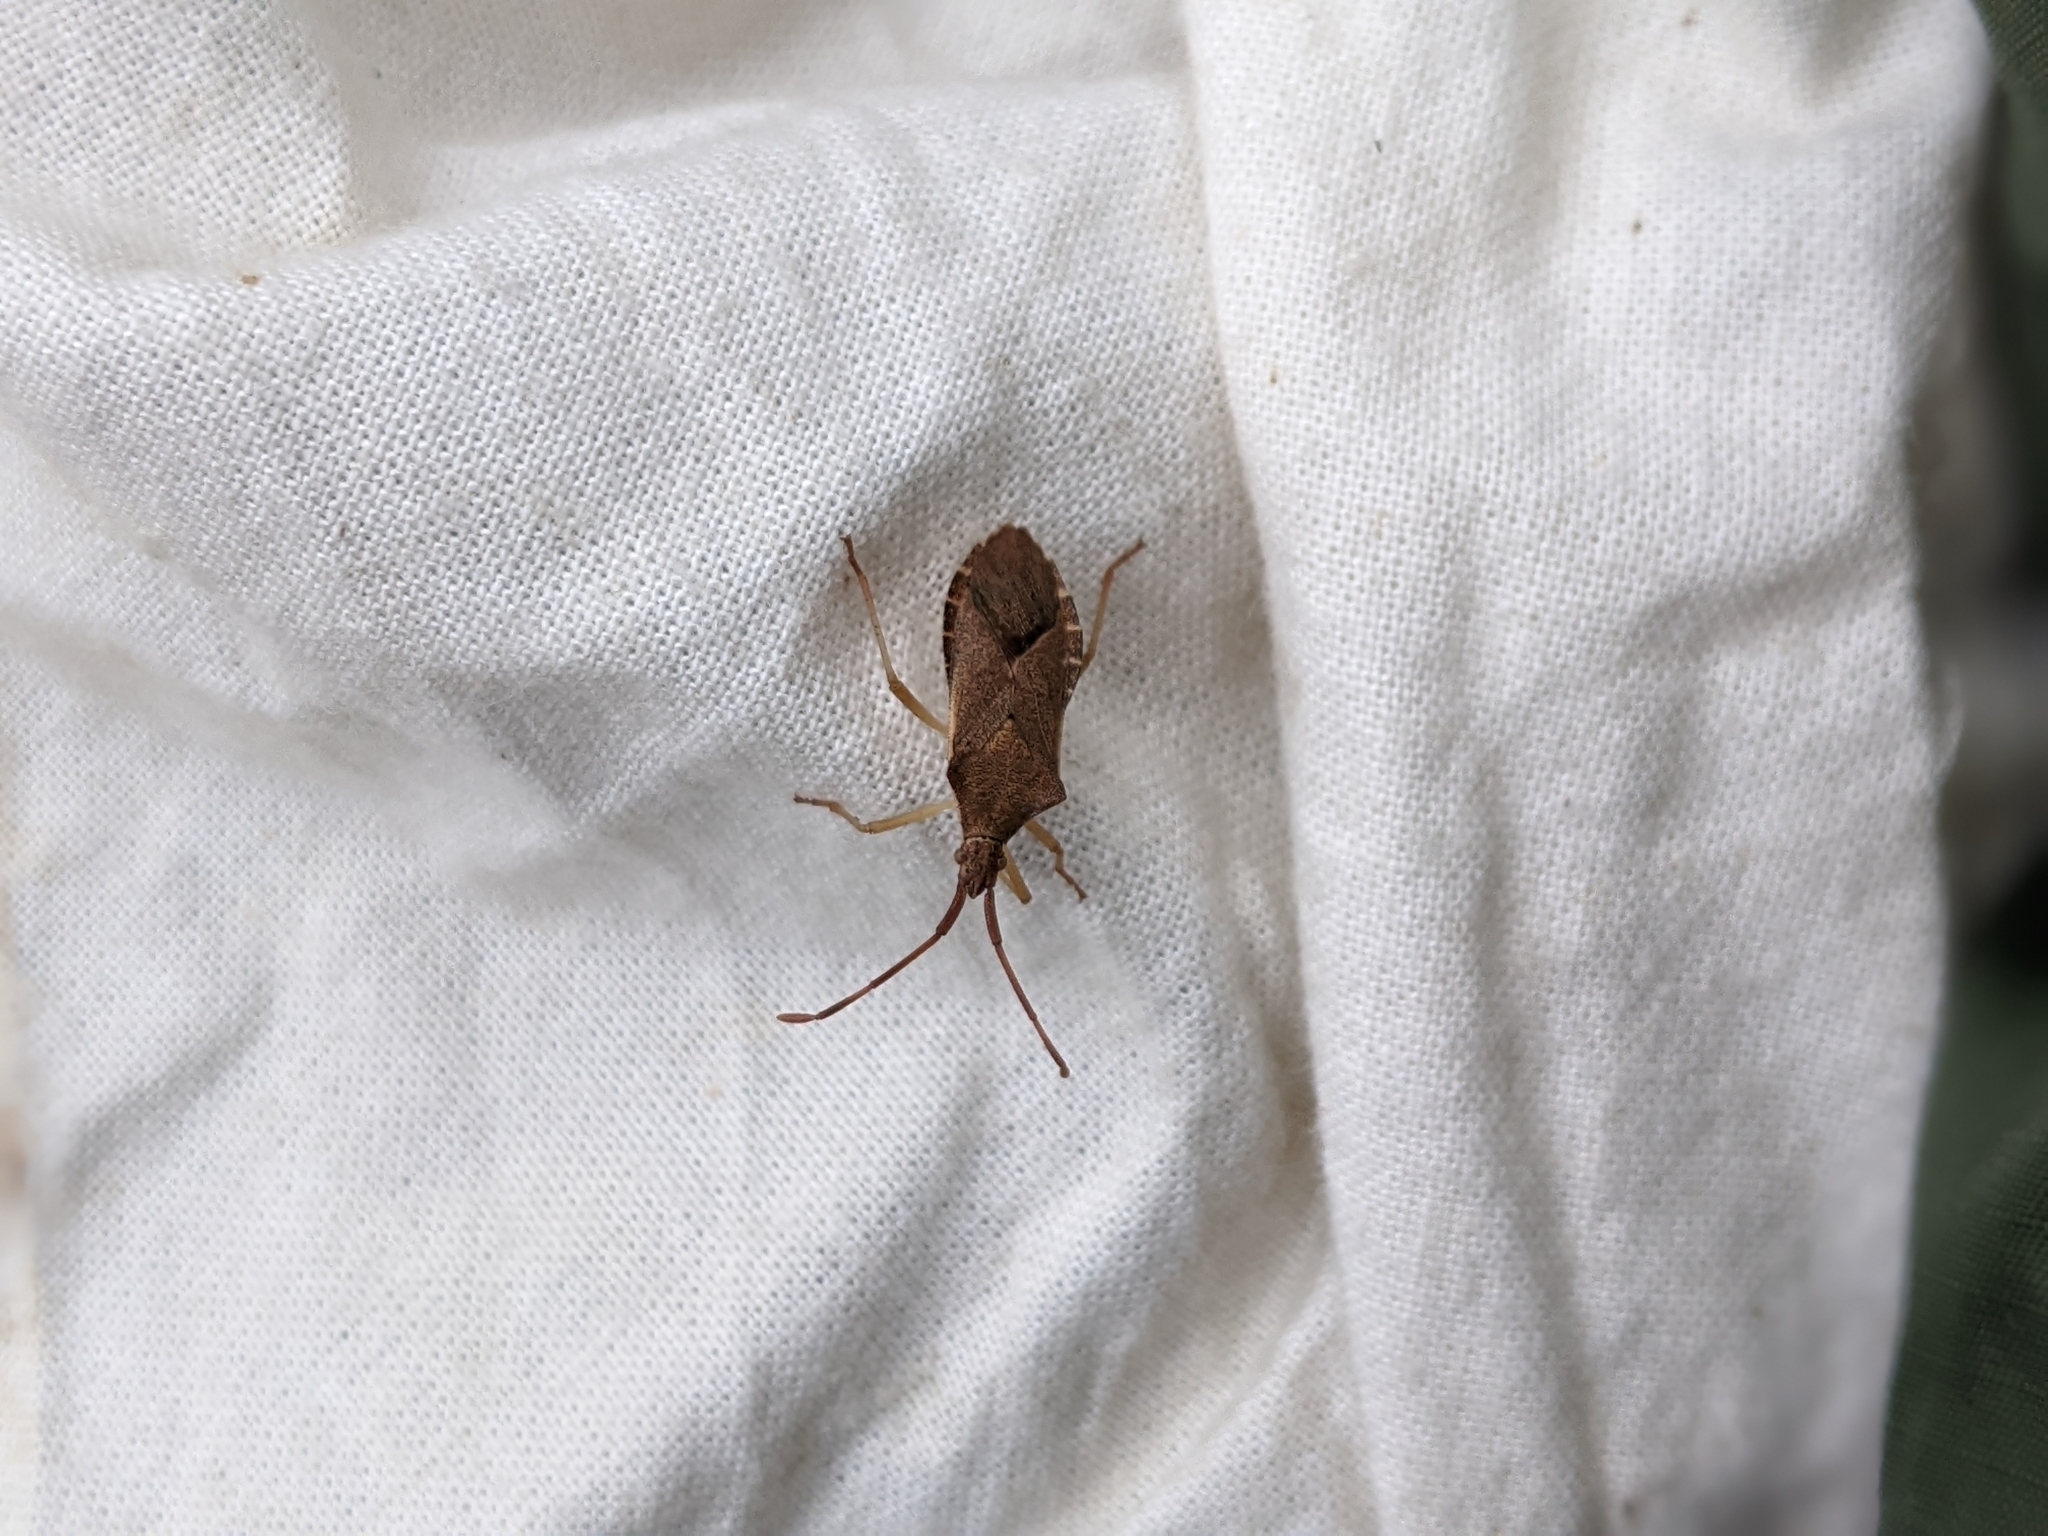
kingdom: Animalia
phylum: Arthropoda
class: Insecta
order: Hemiptera
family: Coreidae
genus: Gonocerus
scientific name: Gonocerus acuteangulatus
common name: Box bug
